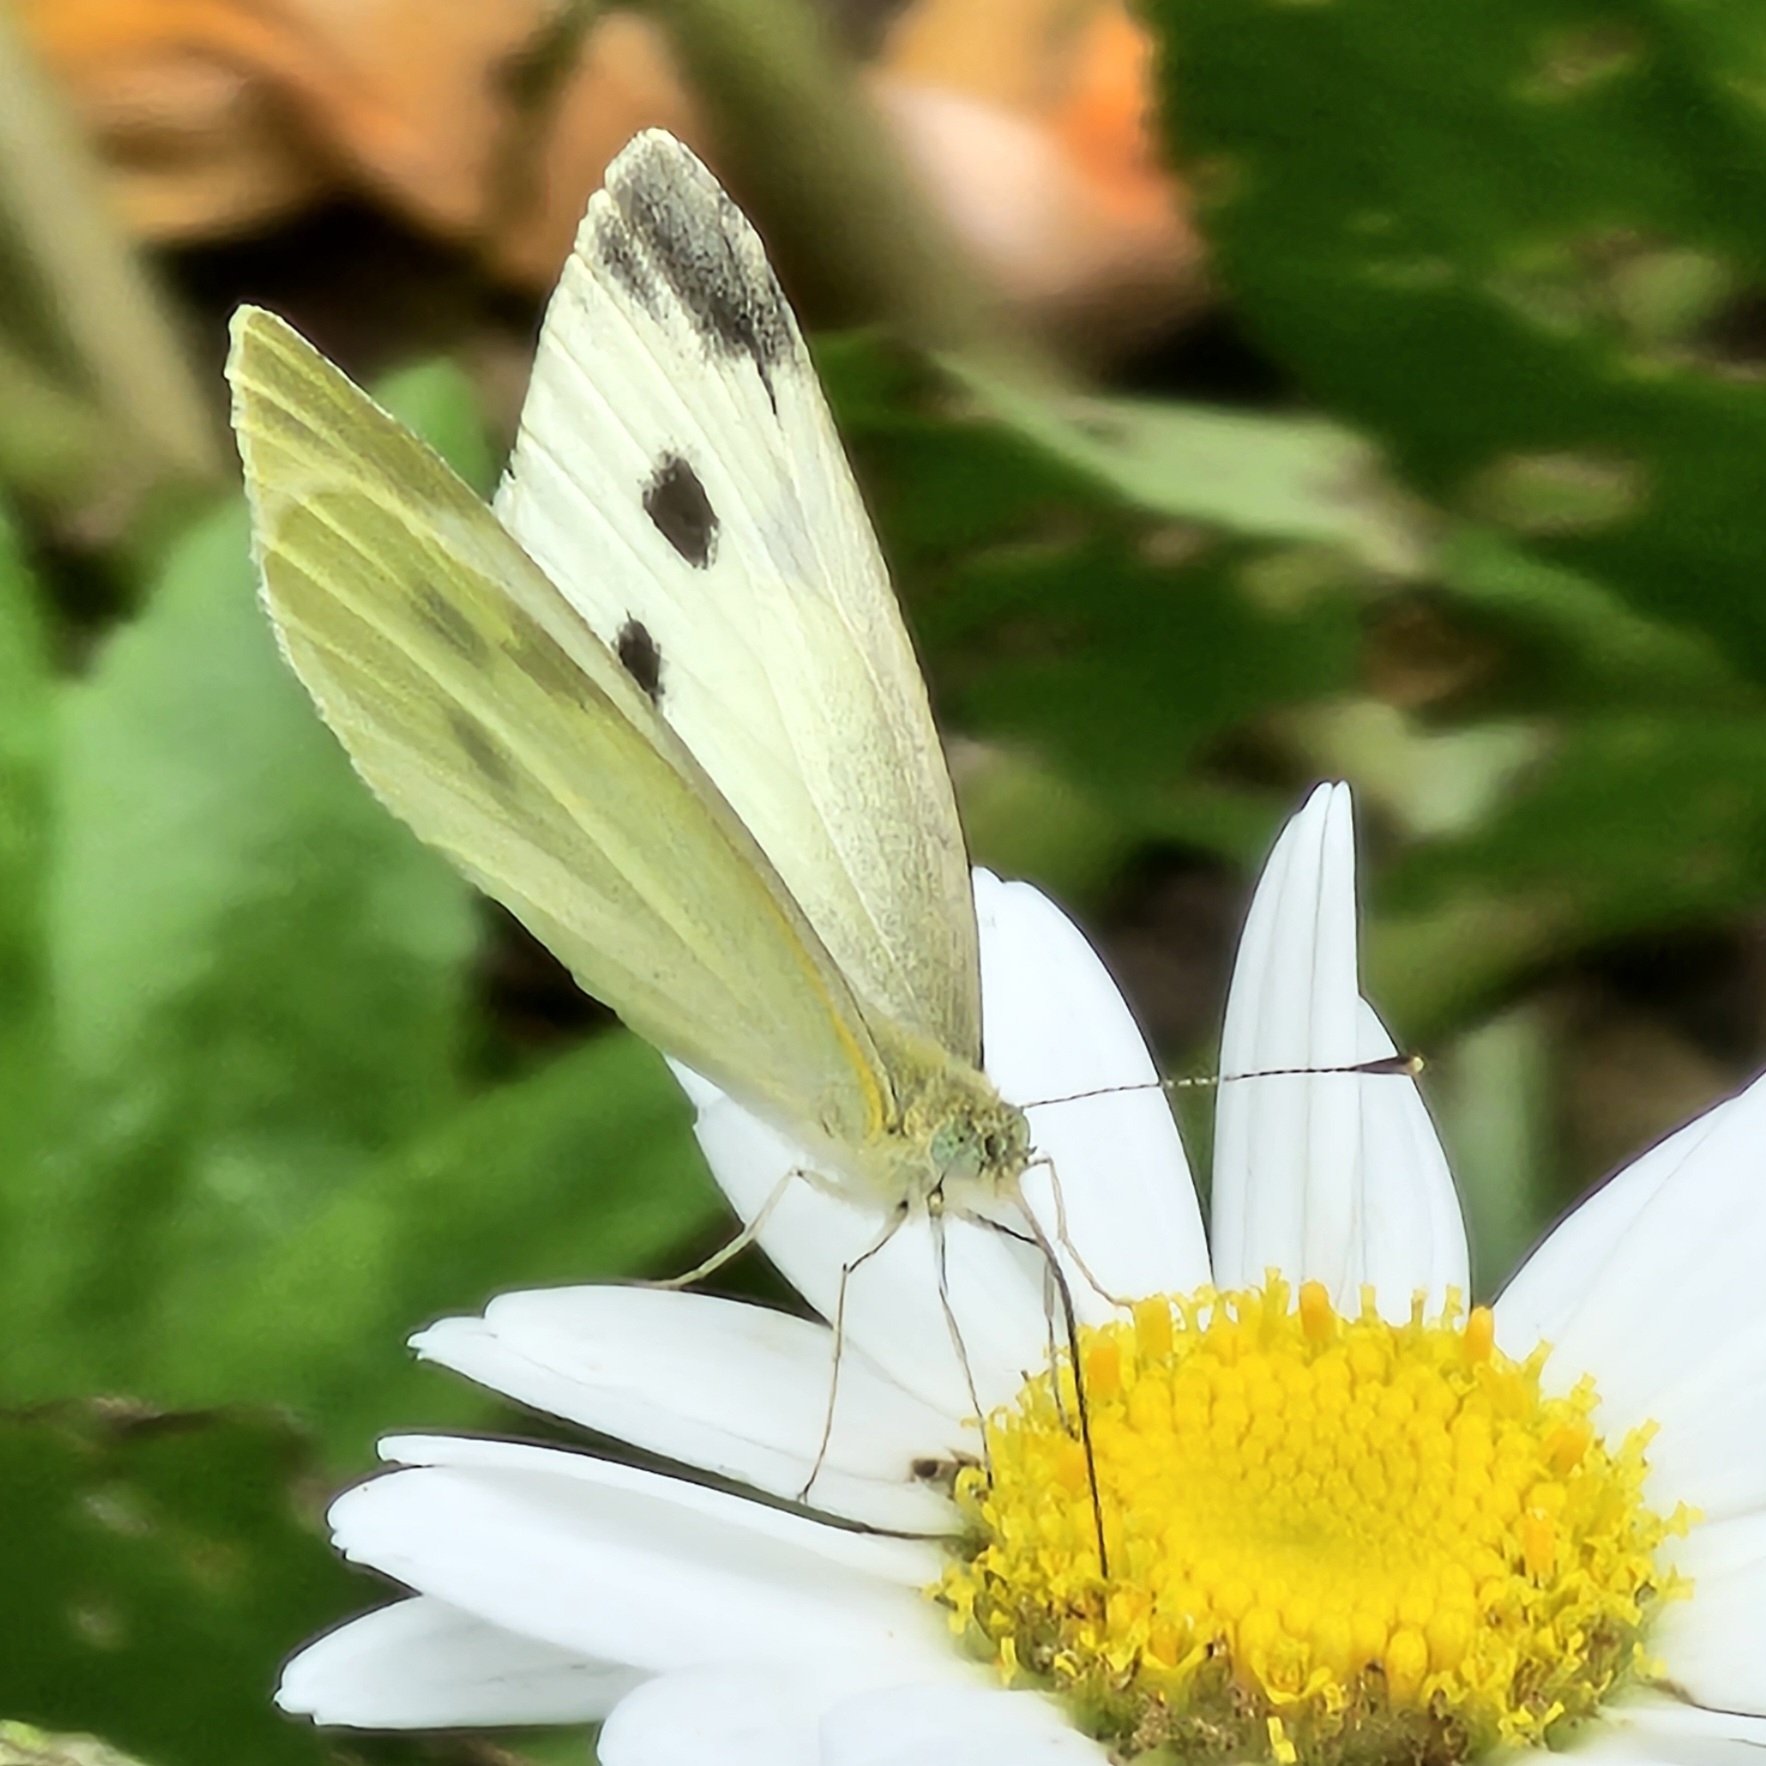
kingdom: Animalia
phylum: Arthropoda
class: Insecta
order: Lepidoptera
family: Pieridae
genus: Pieris
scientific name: Pieris rapae
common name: Small white
